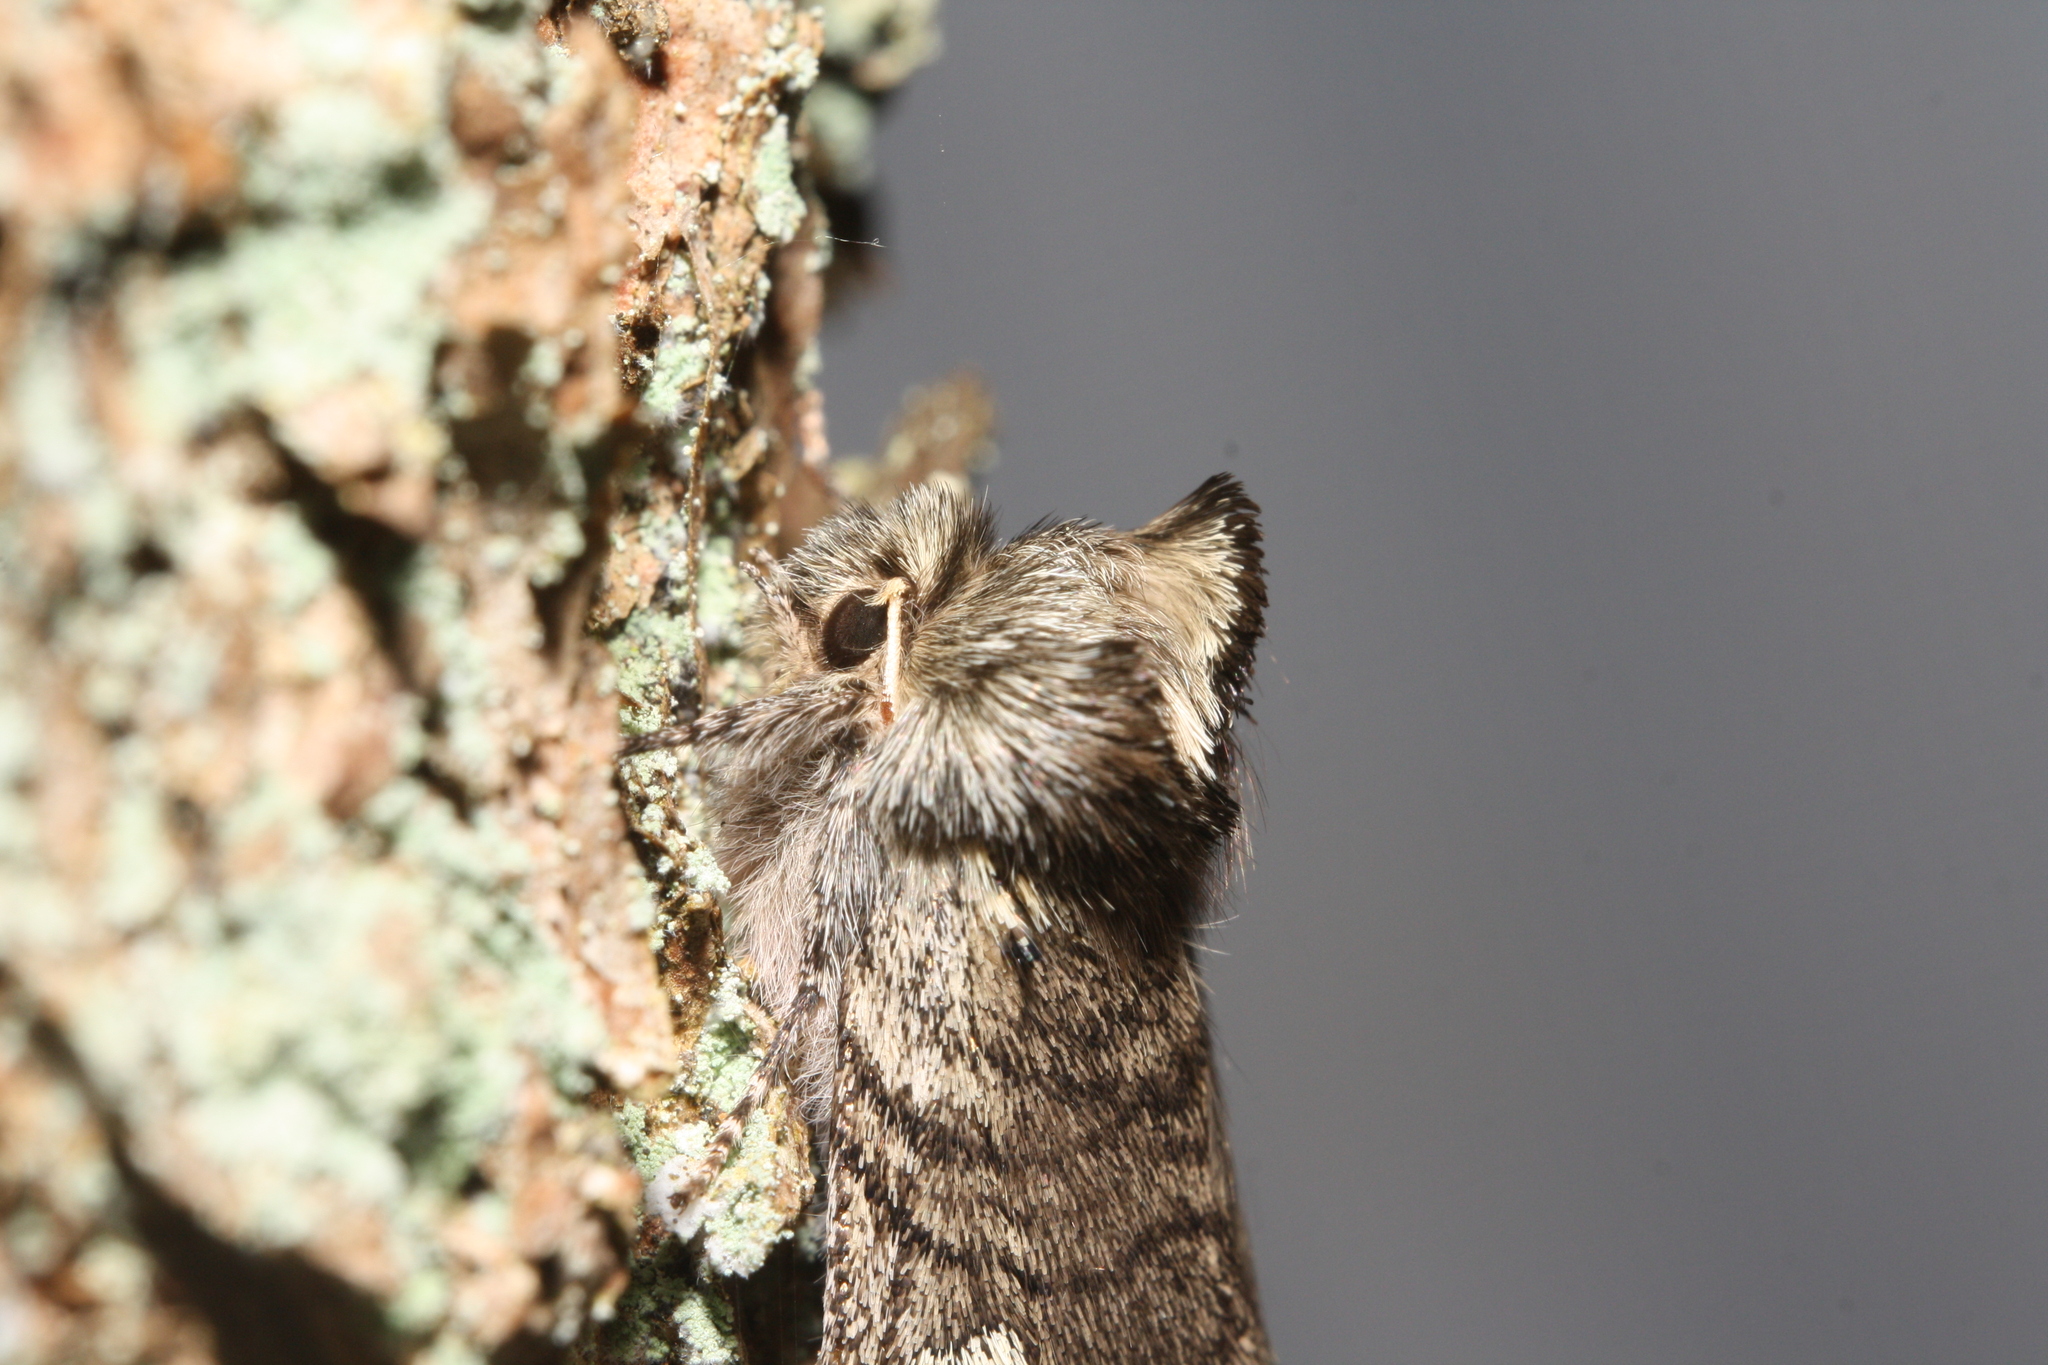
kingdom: Animalia
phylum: Arthropoda
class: Insecta
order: Lepidoptera
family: Drepanidae
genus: Achlya
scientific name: Achlya flavicornis
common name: Yellow horned
